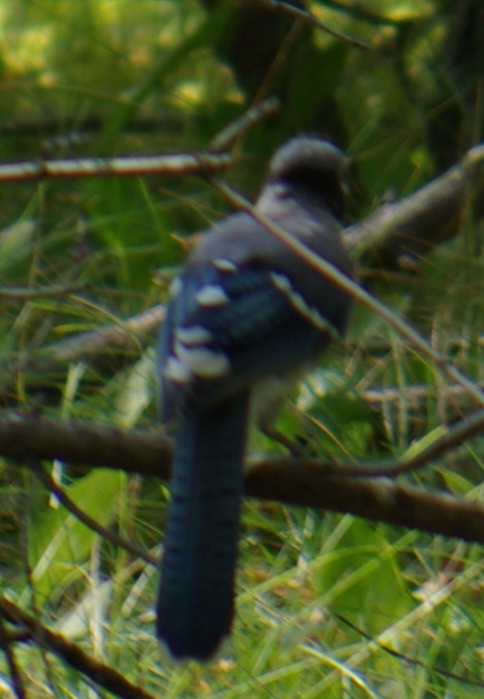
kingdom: Animalia
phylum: Chordata
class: Aves
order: Passeriformes
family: Corvidae
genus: Cyanocitta
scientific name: Cyanocitta cristata
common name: Blue jay
